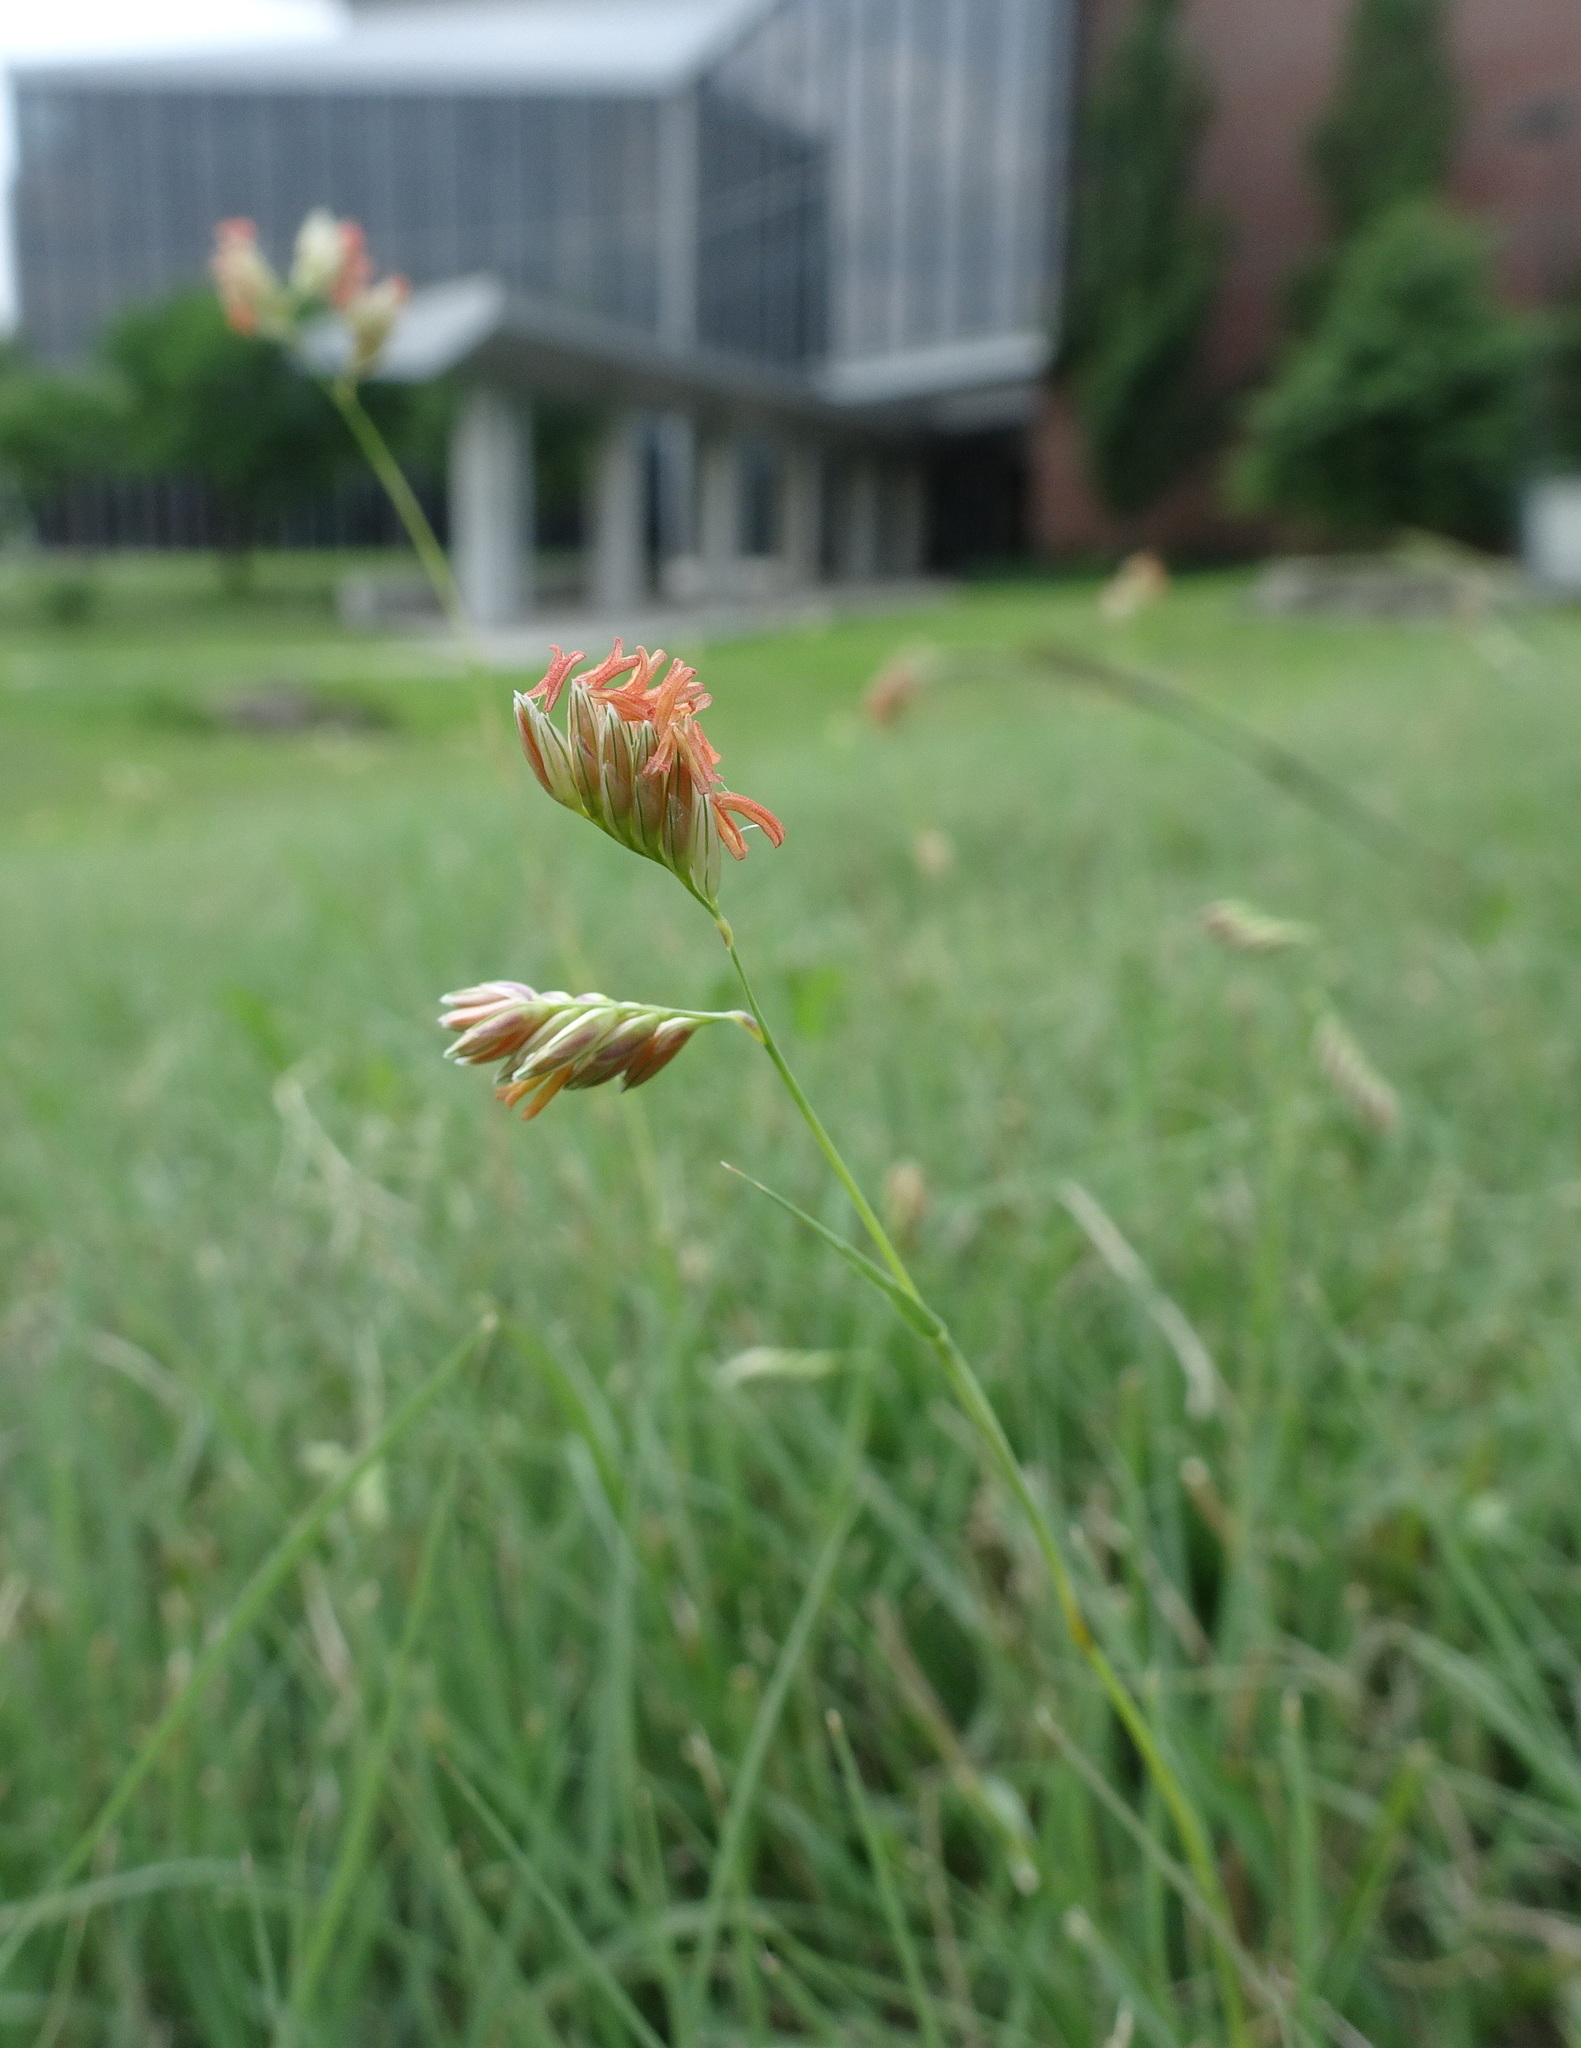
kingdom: Plantae
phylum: Tracheophyta
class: Liliopsida
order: Poales
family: Poaceae
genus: Bouteloua
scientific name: Bouteloua dactyloides
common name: Buffalo grass
